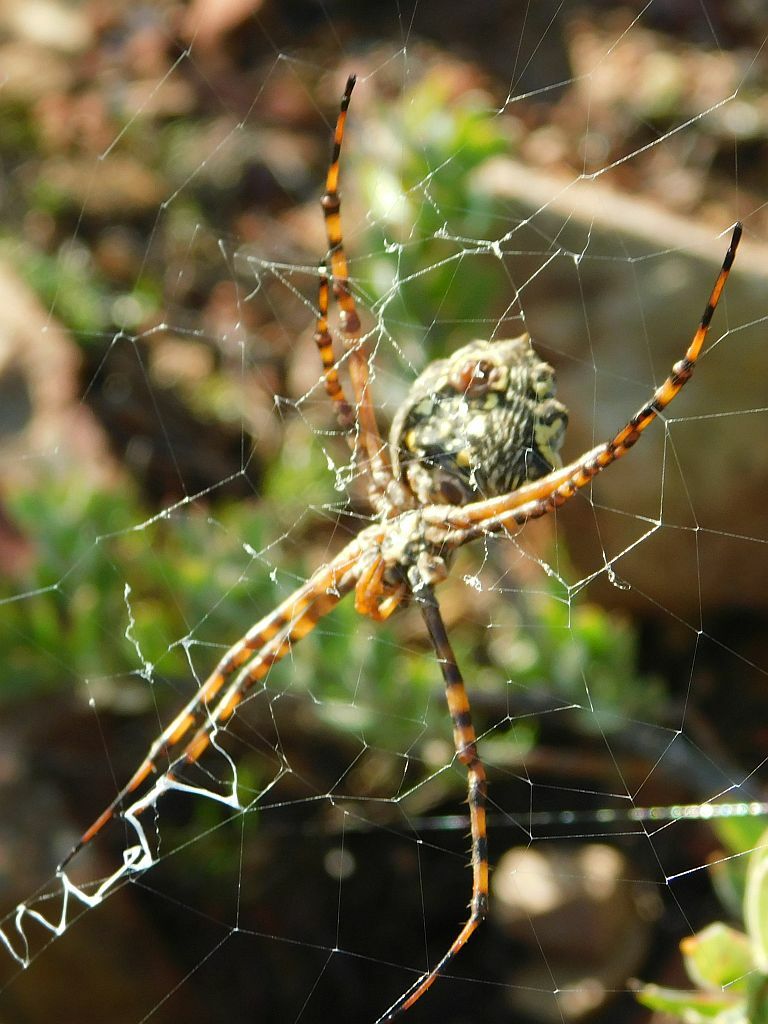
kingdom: Animalia
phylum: Arthropoda
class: Arachnida
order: Araneae
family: Araneidae
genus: Argiope
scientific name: Argiope australis
